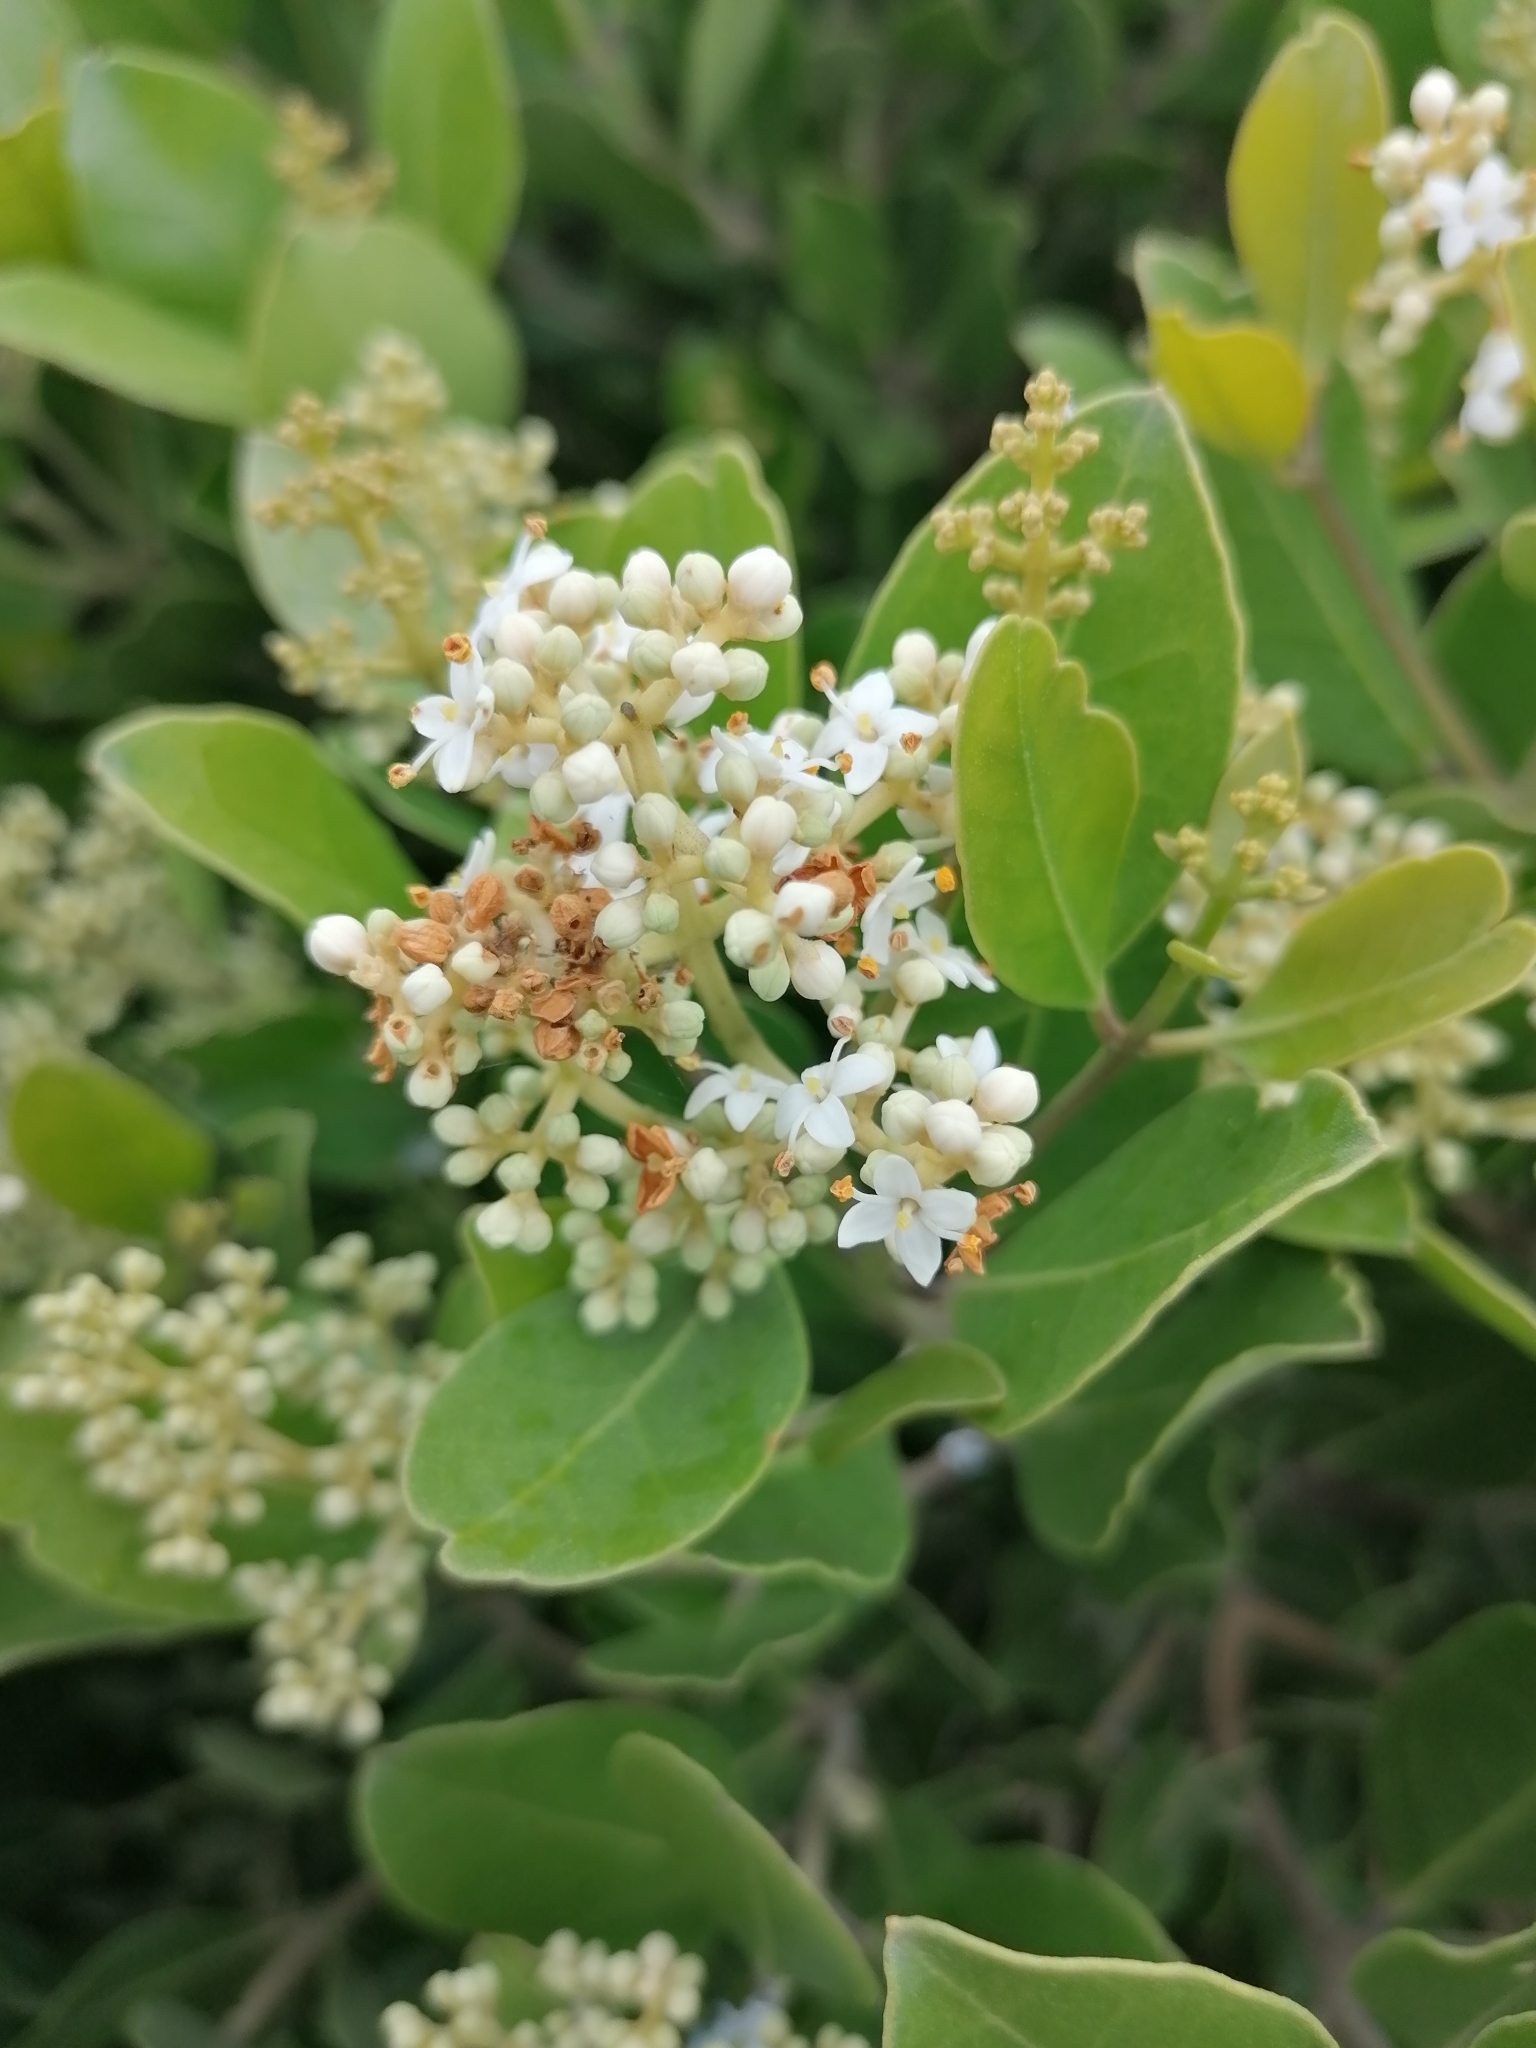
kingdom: Plantae
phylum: Tracheophyta
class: Magnoliopsida
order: Lamiales
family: Oleaceae
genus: Olea
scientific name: Olea capensis
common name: Black ironwood
